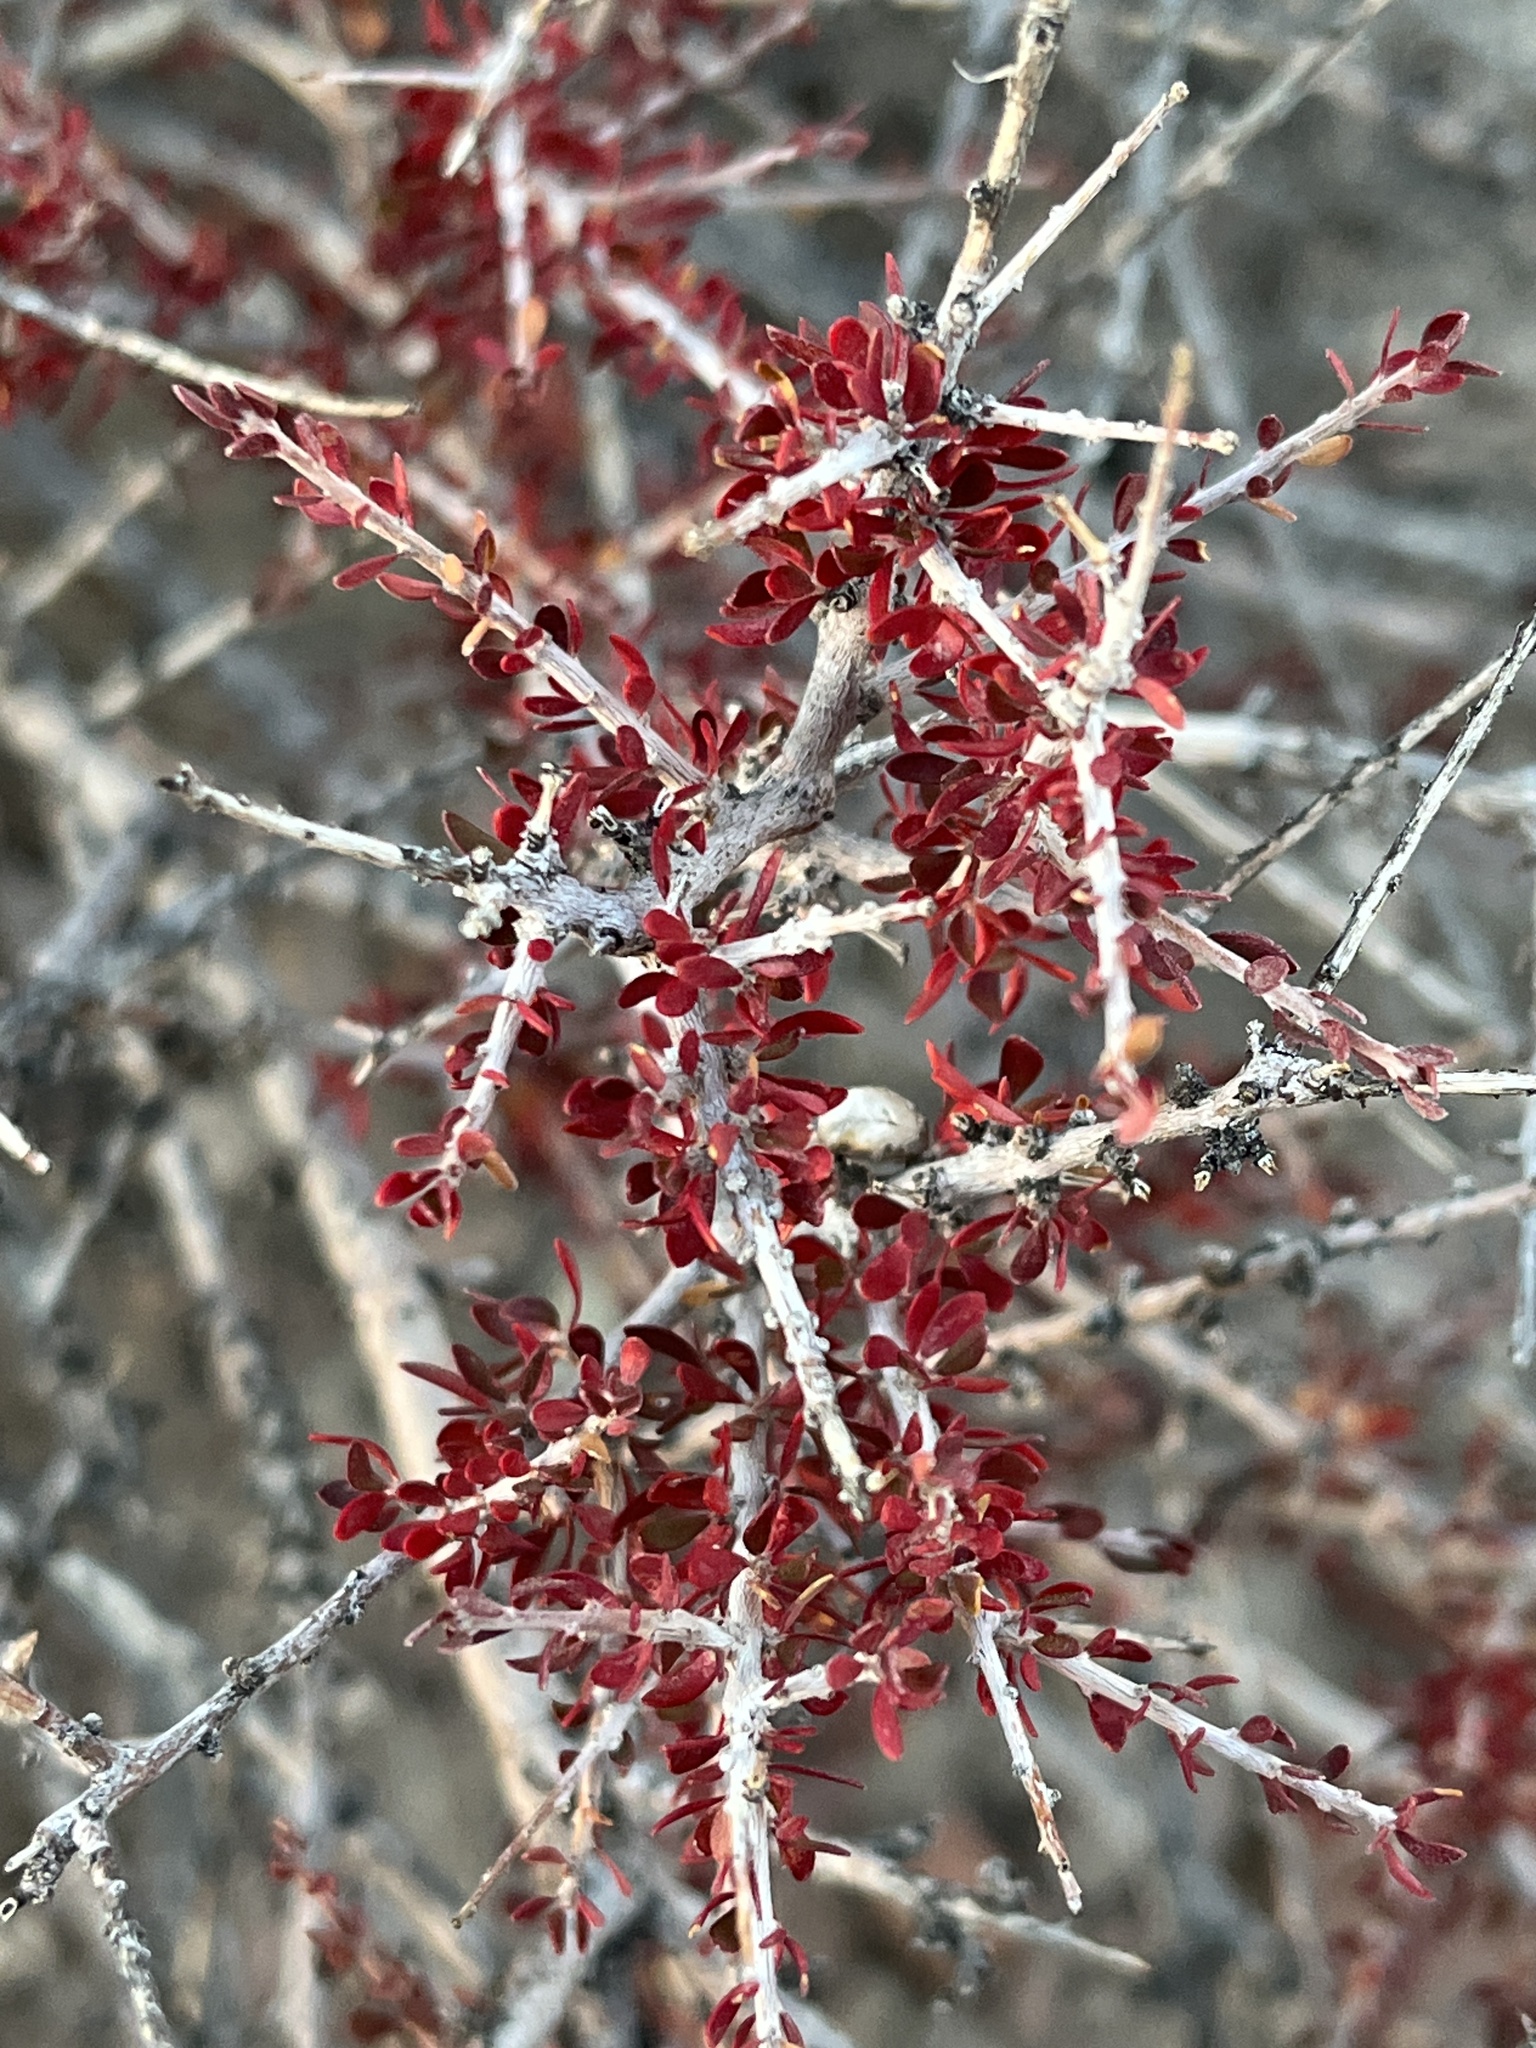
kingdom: Plantae
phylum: Tracheophyta
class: Magnoliopsida
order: Malpighiales
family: Picrodendraceae
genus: Tetracoccus
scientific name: Tetracoccus hallii
